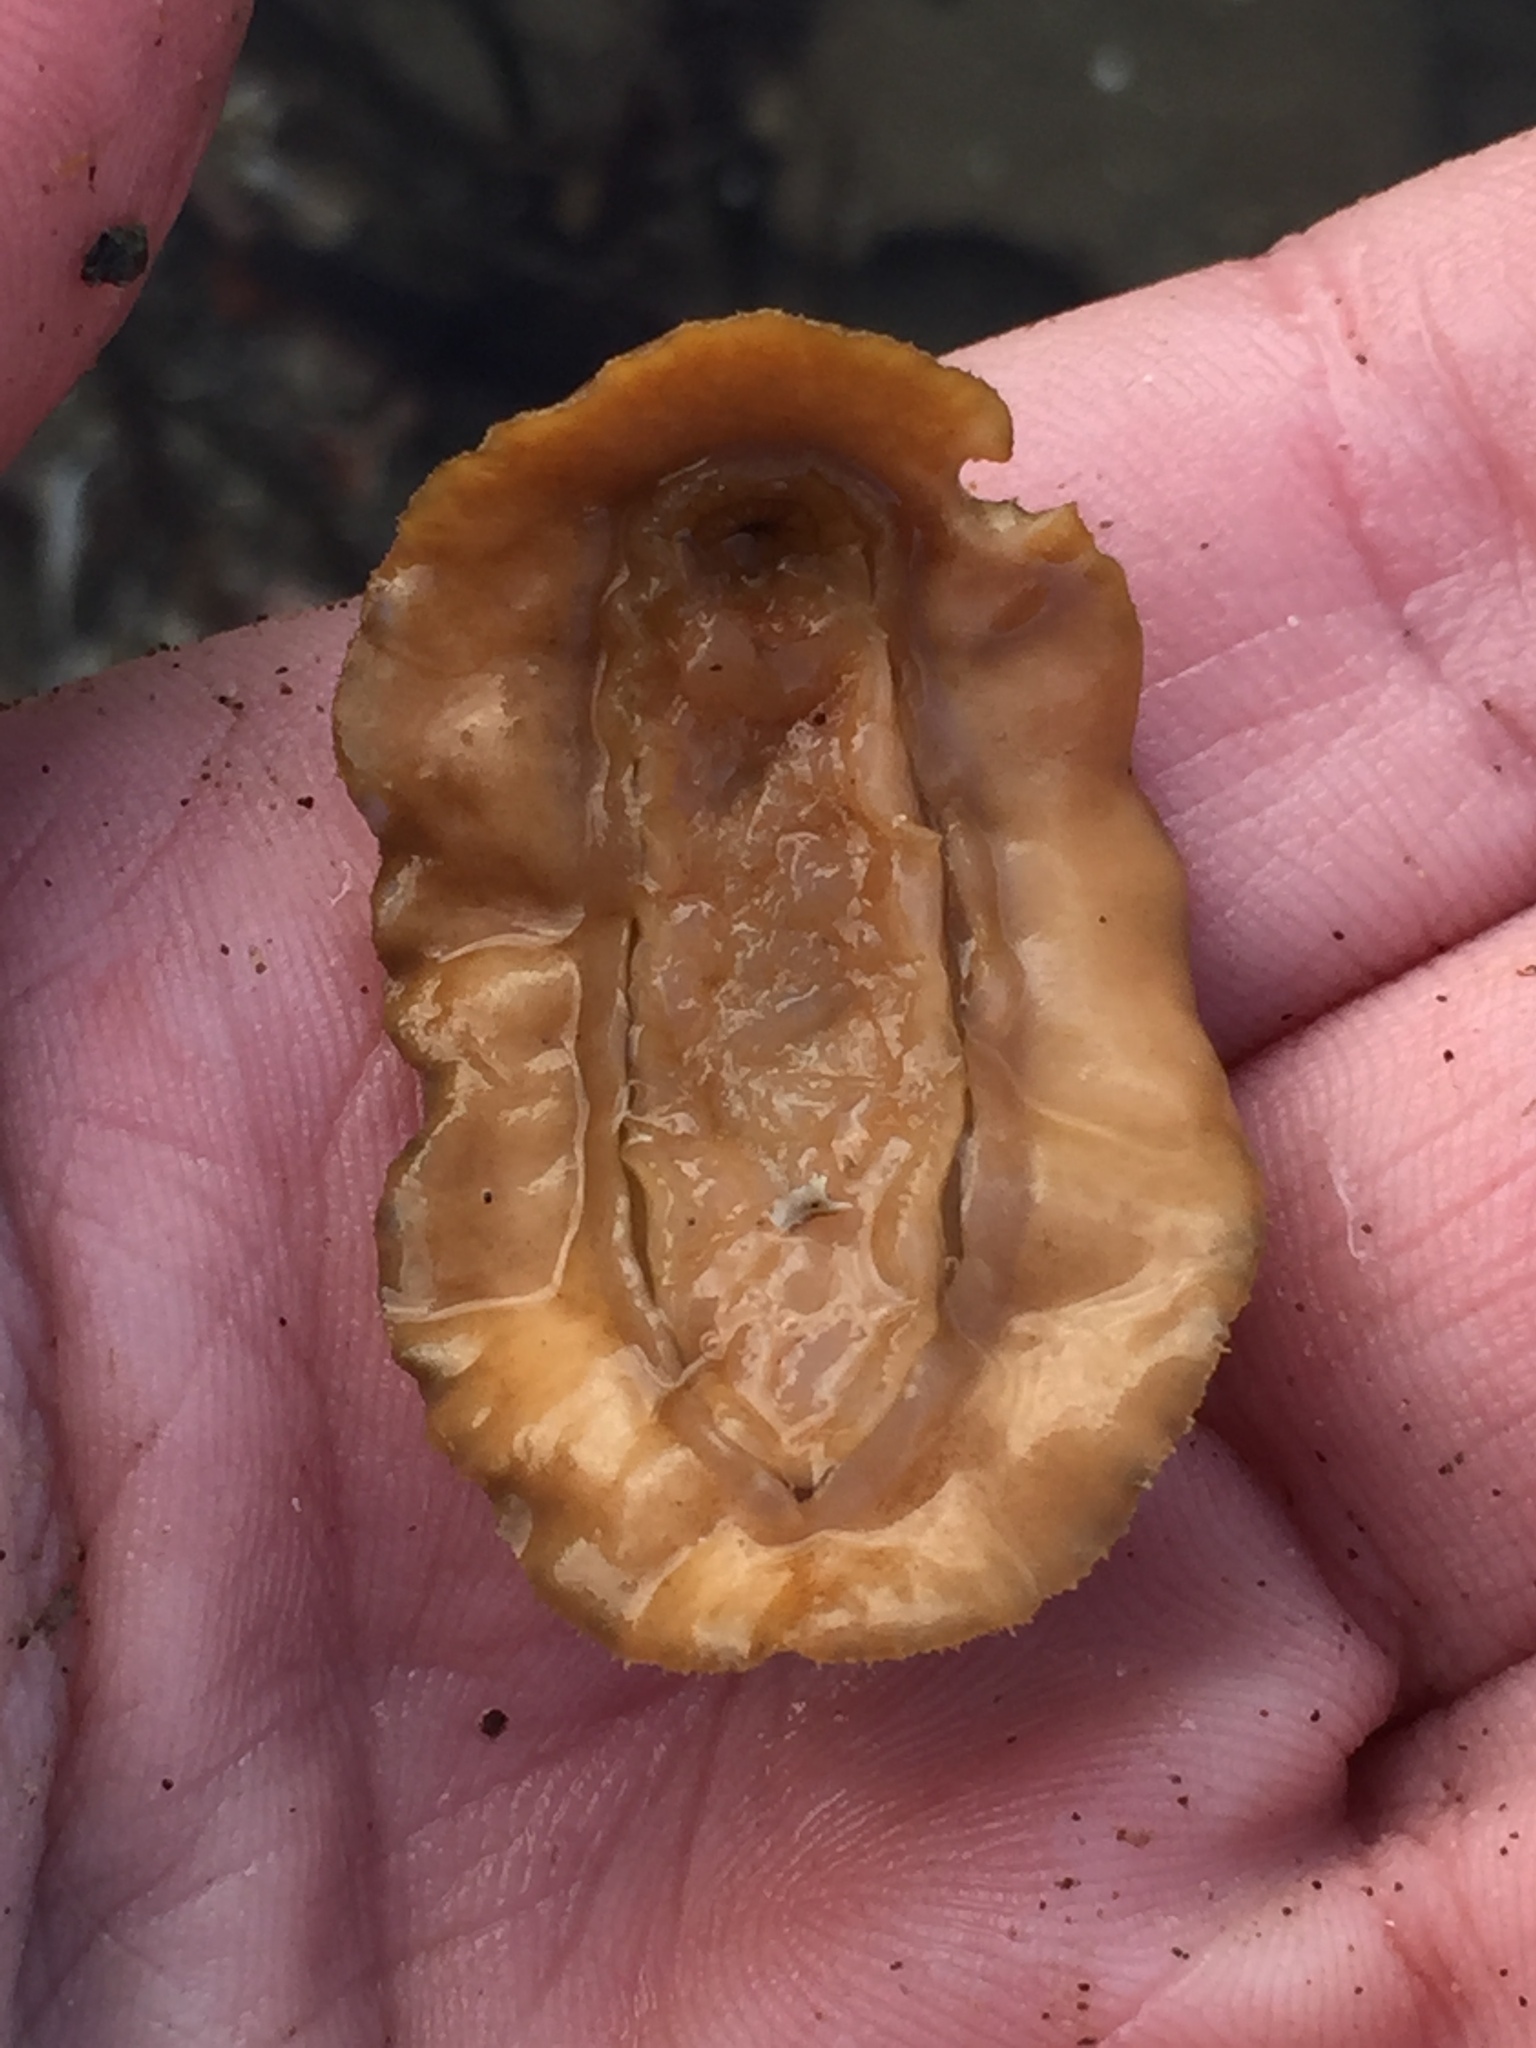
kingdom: Animalia
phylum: Mollusca
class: Polyplacophora
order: Chitonida
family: Acanthochitonidae
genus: Notoplax
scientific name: Notoplax violacea
